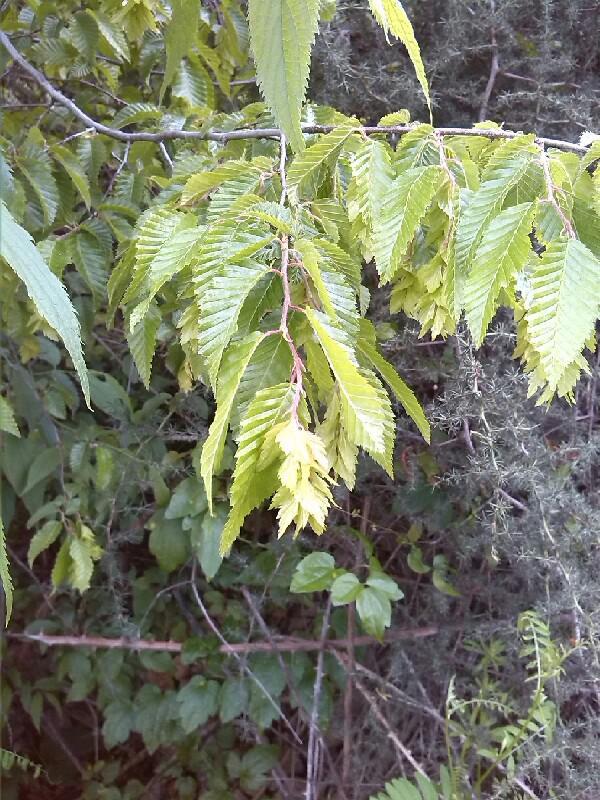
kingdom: Plantae
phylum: Tracheophyta
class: Magnoliopsida
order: Fagales
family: Betulaceae
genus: Ostrya
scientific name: Ostrya carpinifolia
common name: European hop-hornbeam
